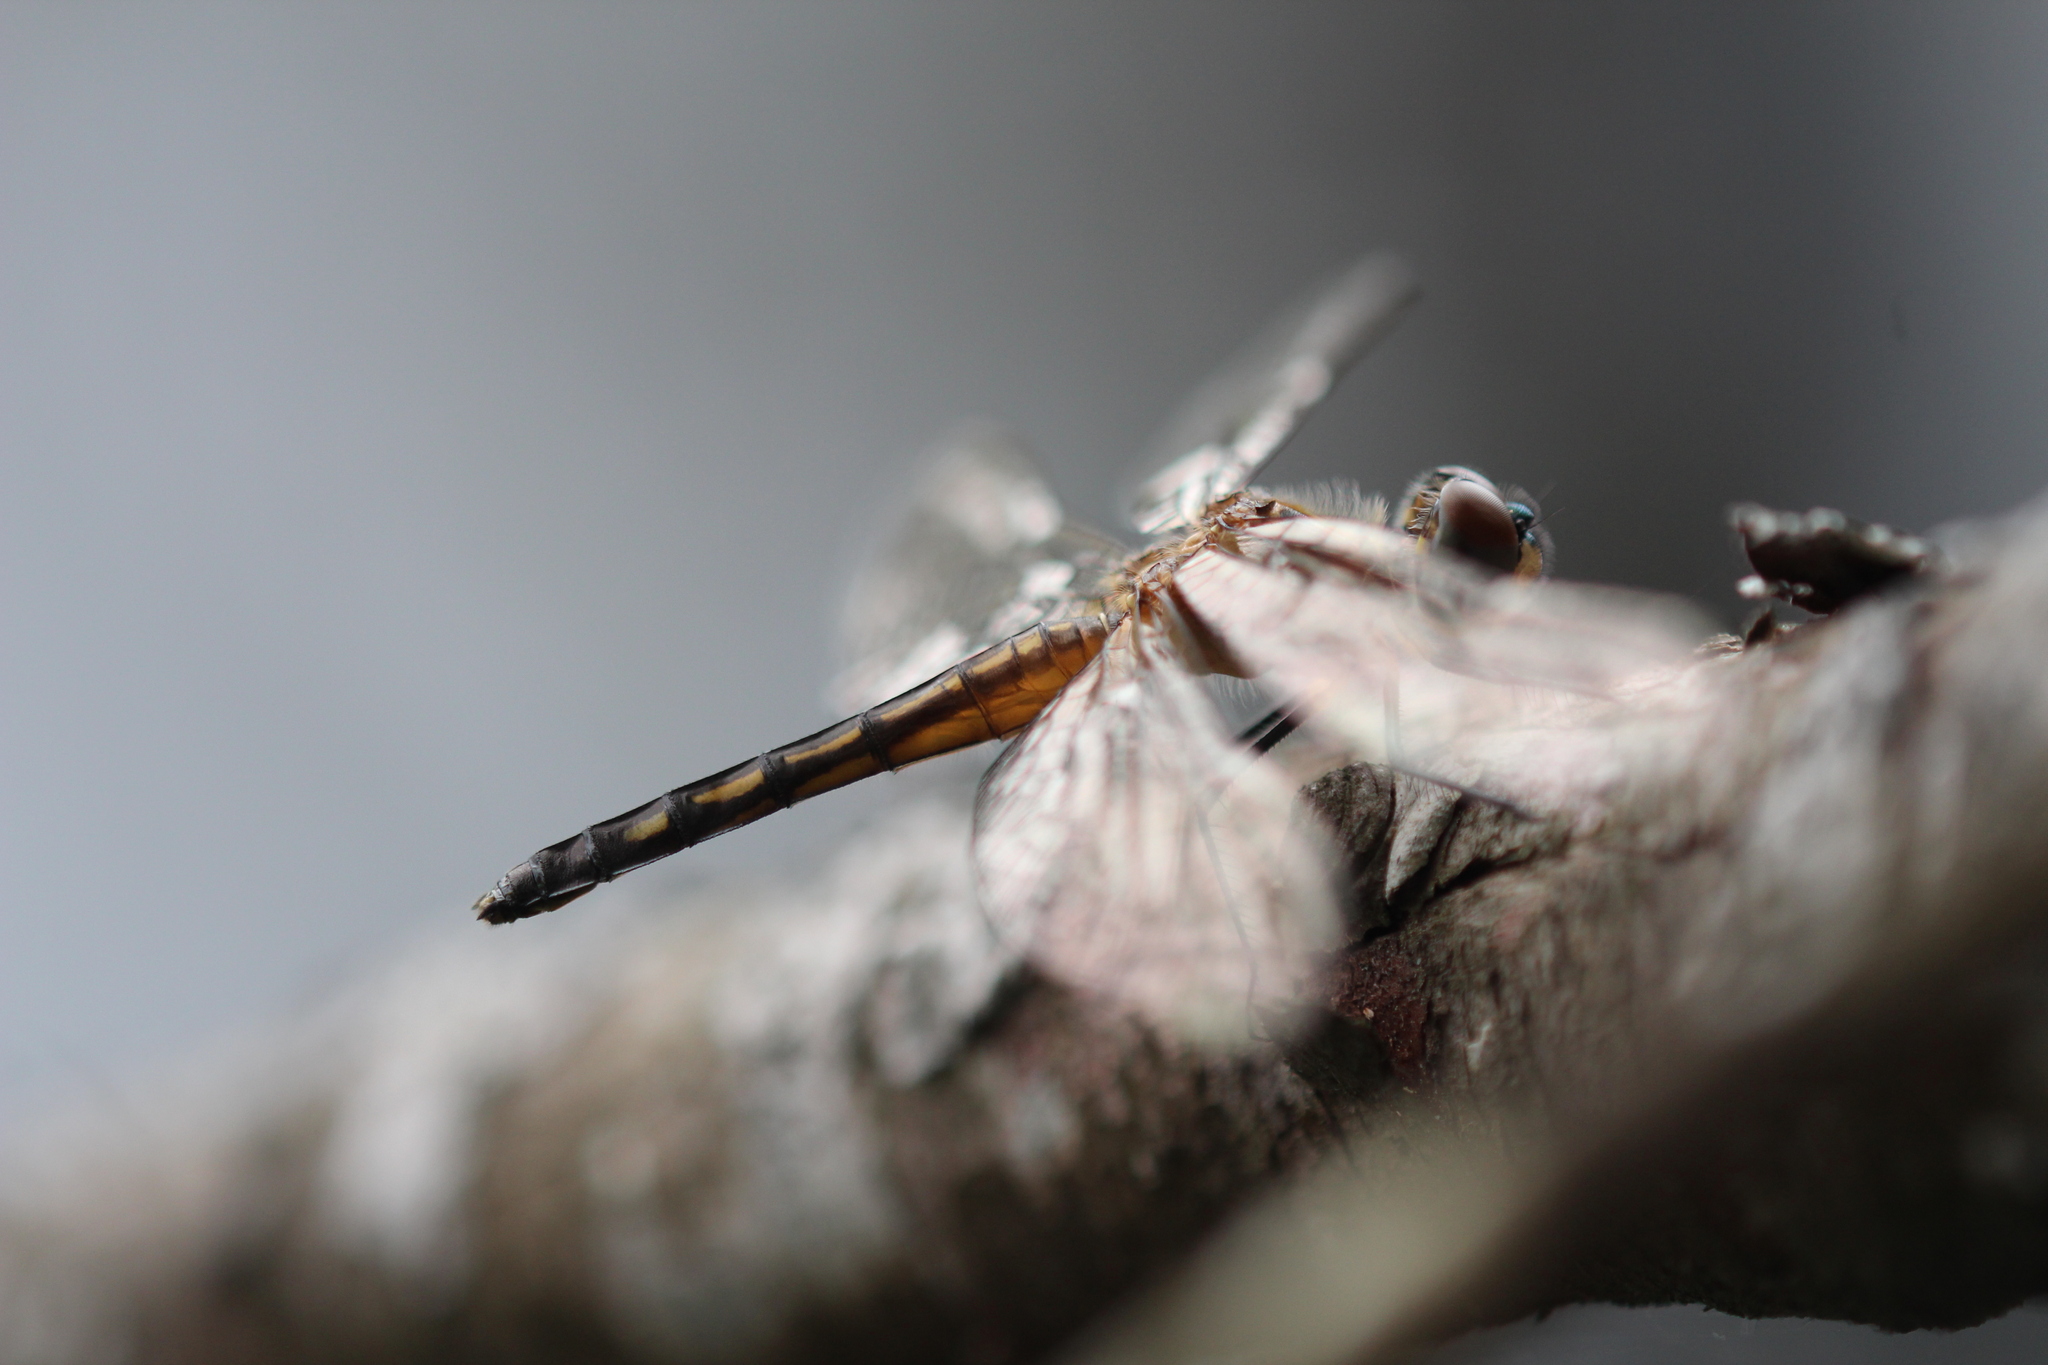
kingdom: Animalia
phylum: Arthropoda
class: Insecta
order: Odonata
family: Libellulidae
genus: Pachydiplax
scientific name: Pachydiplax longipennis
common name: Blue dasher
